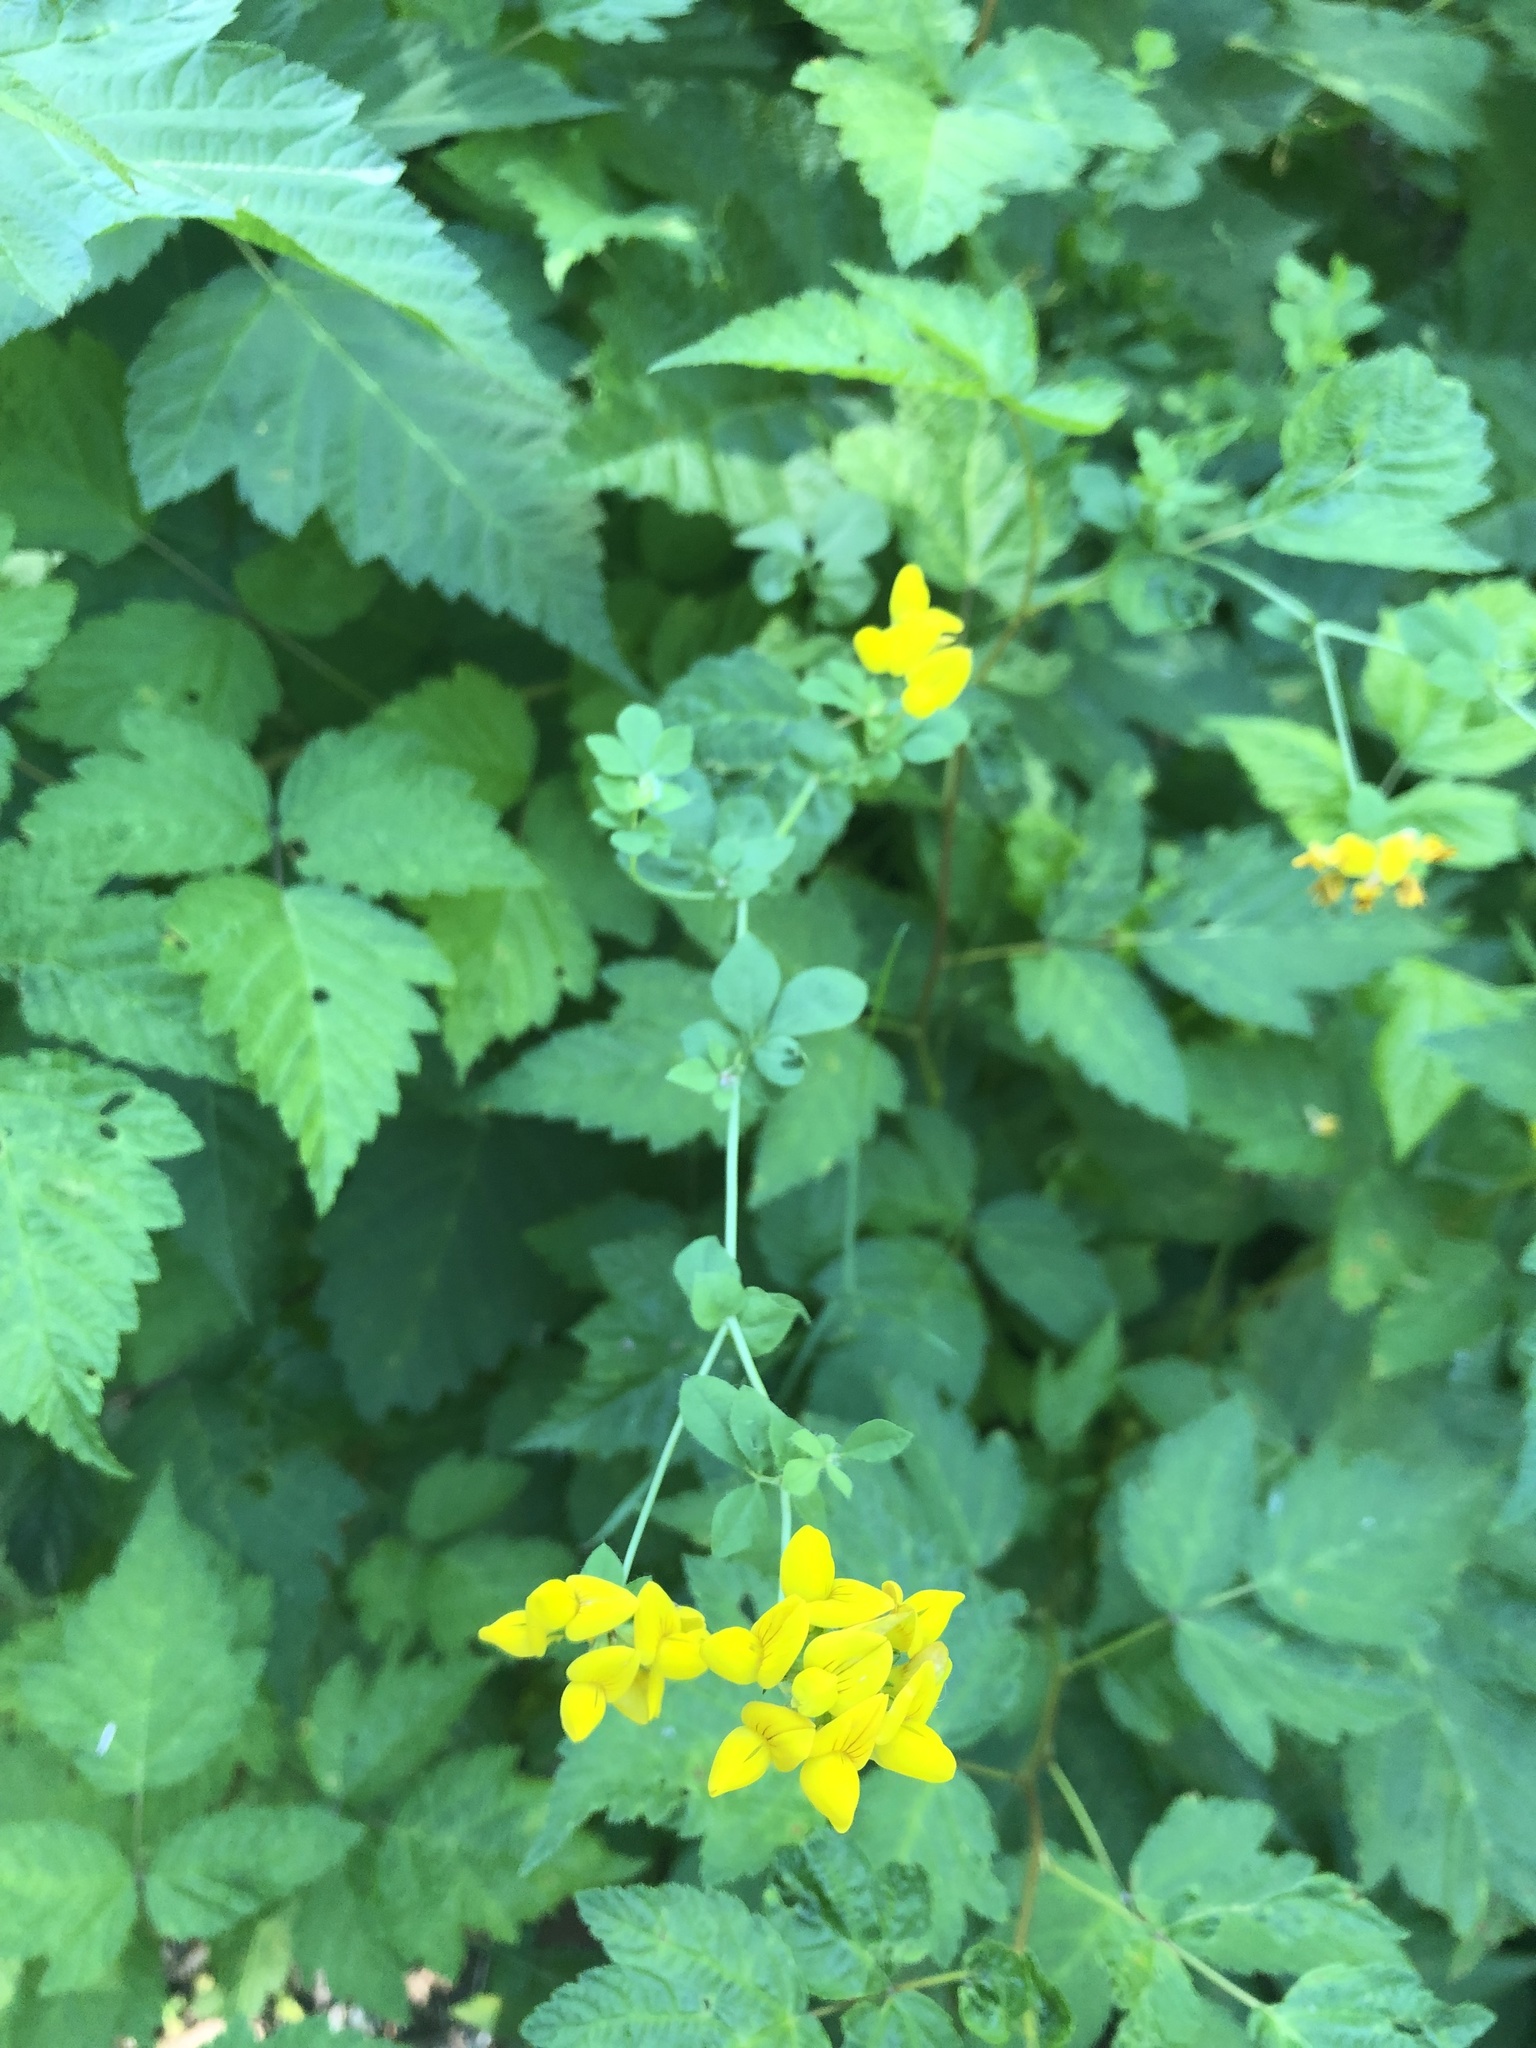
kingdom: Plantae
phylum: Tracheophyta
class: Magnoliopsida
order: Fabales
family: Fabaceae
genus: Lotus
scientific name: Lotus pedunculatus
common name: Greater birdsfoot-trefoil
